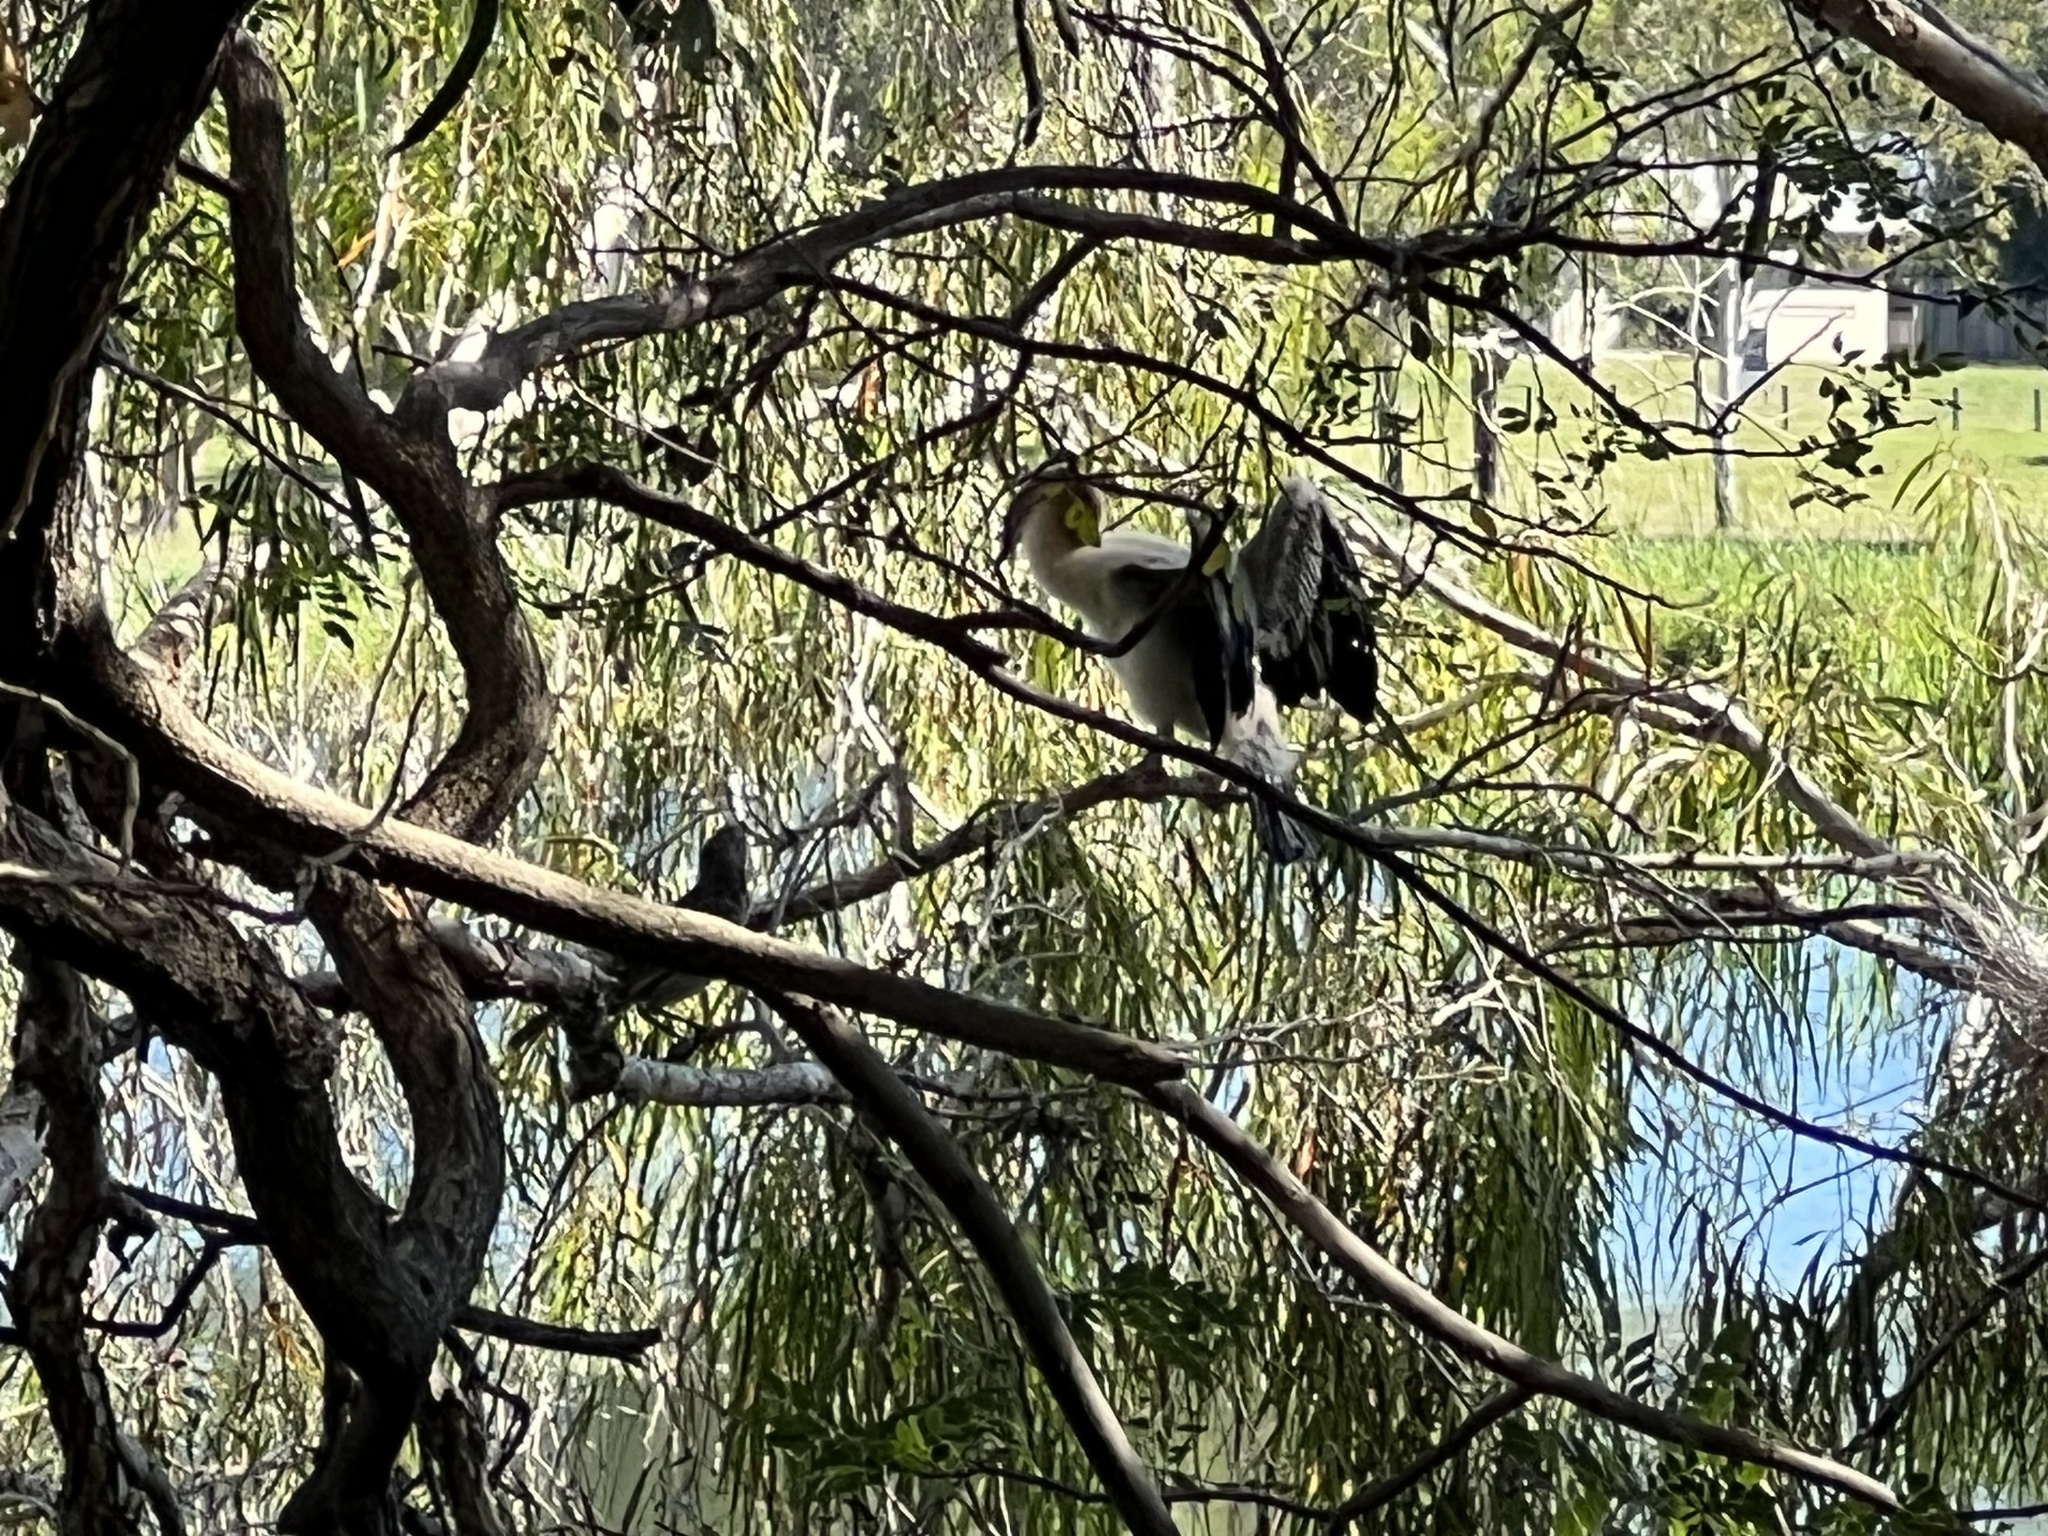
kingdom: Animalia
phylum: Chordata
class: Aves
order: Suliformes
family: Anhingidae
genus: Anhinga
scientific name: Anhinga novaehollandiae
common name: Australasian darter
